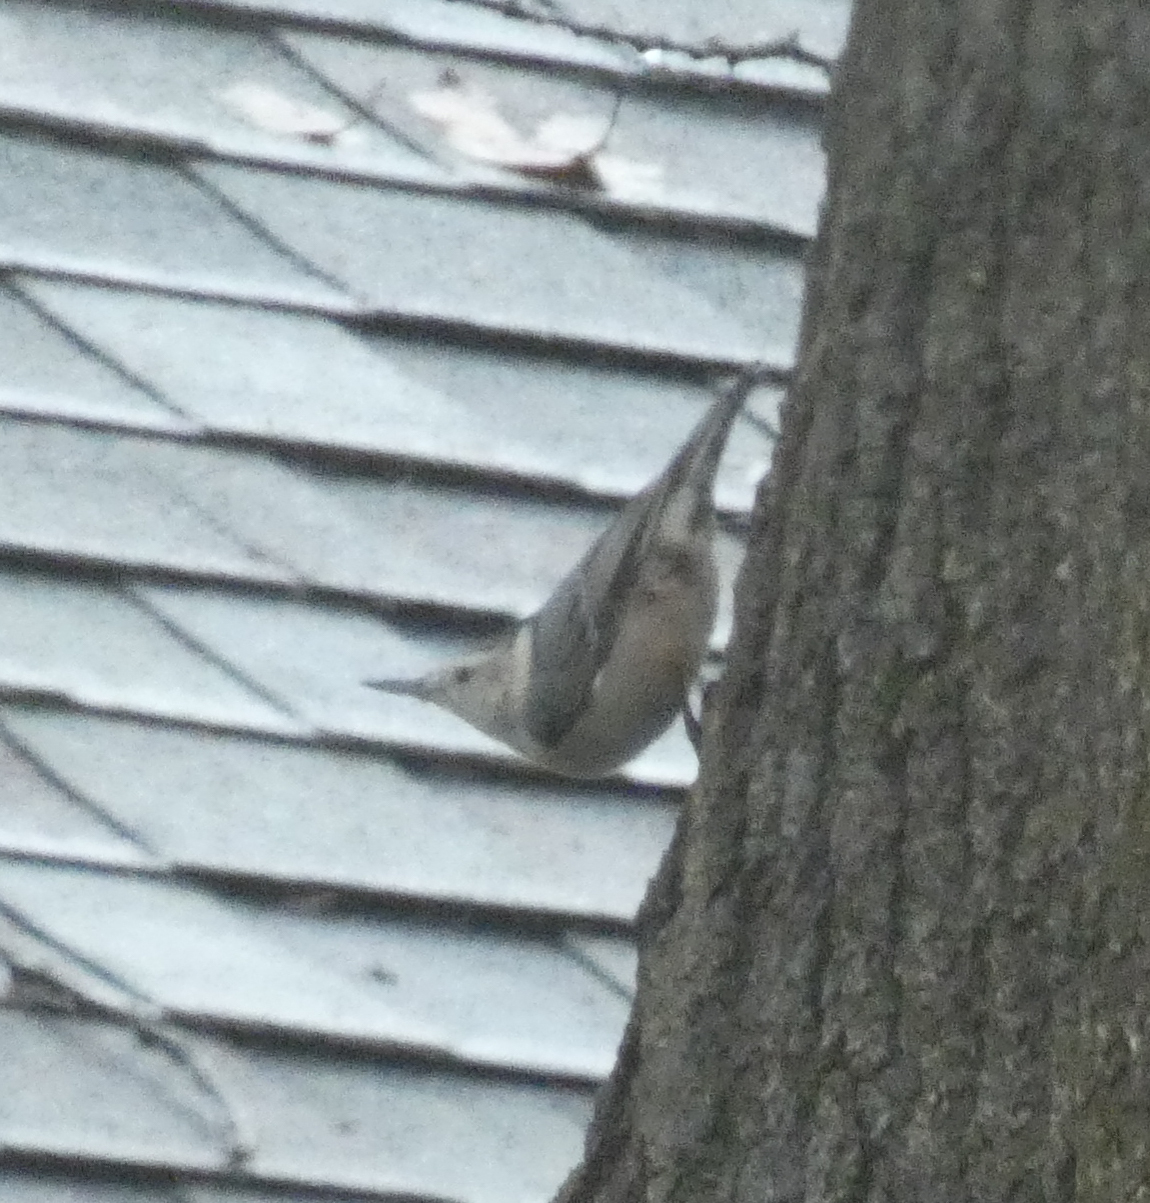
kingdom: Animalia
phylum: Chordata
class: Aves
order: Passeriformes
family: Sittidae
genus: Sitta
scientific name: Sitta carolinensis
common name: White-breasted nuthatch
